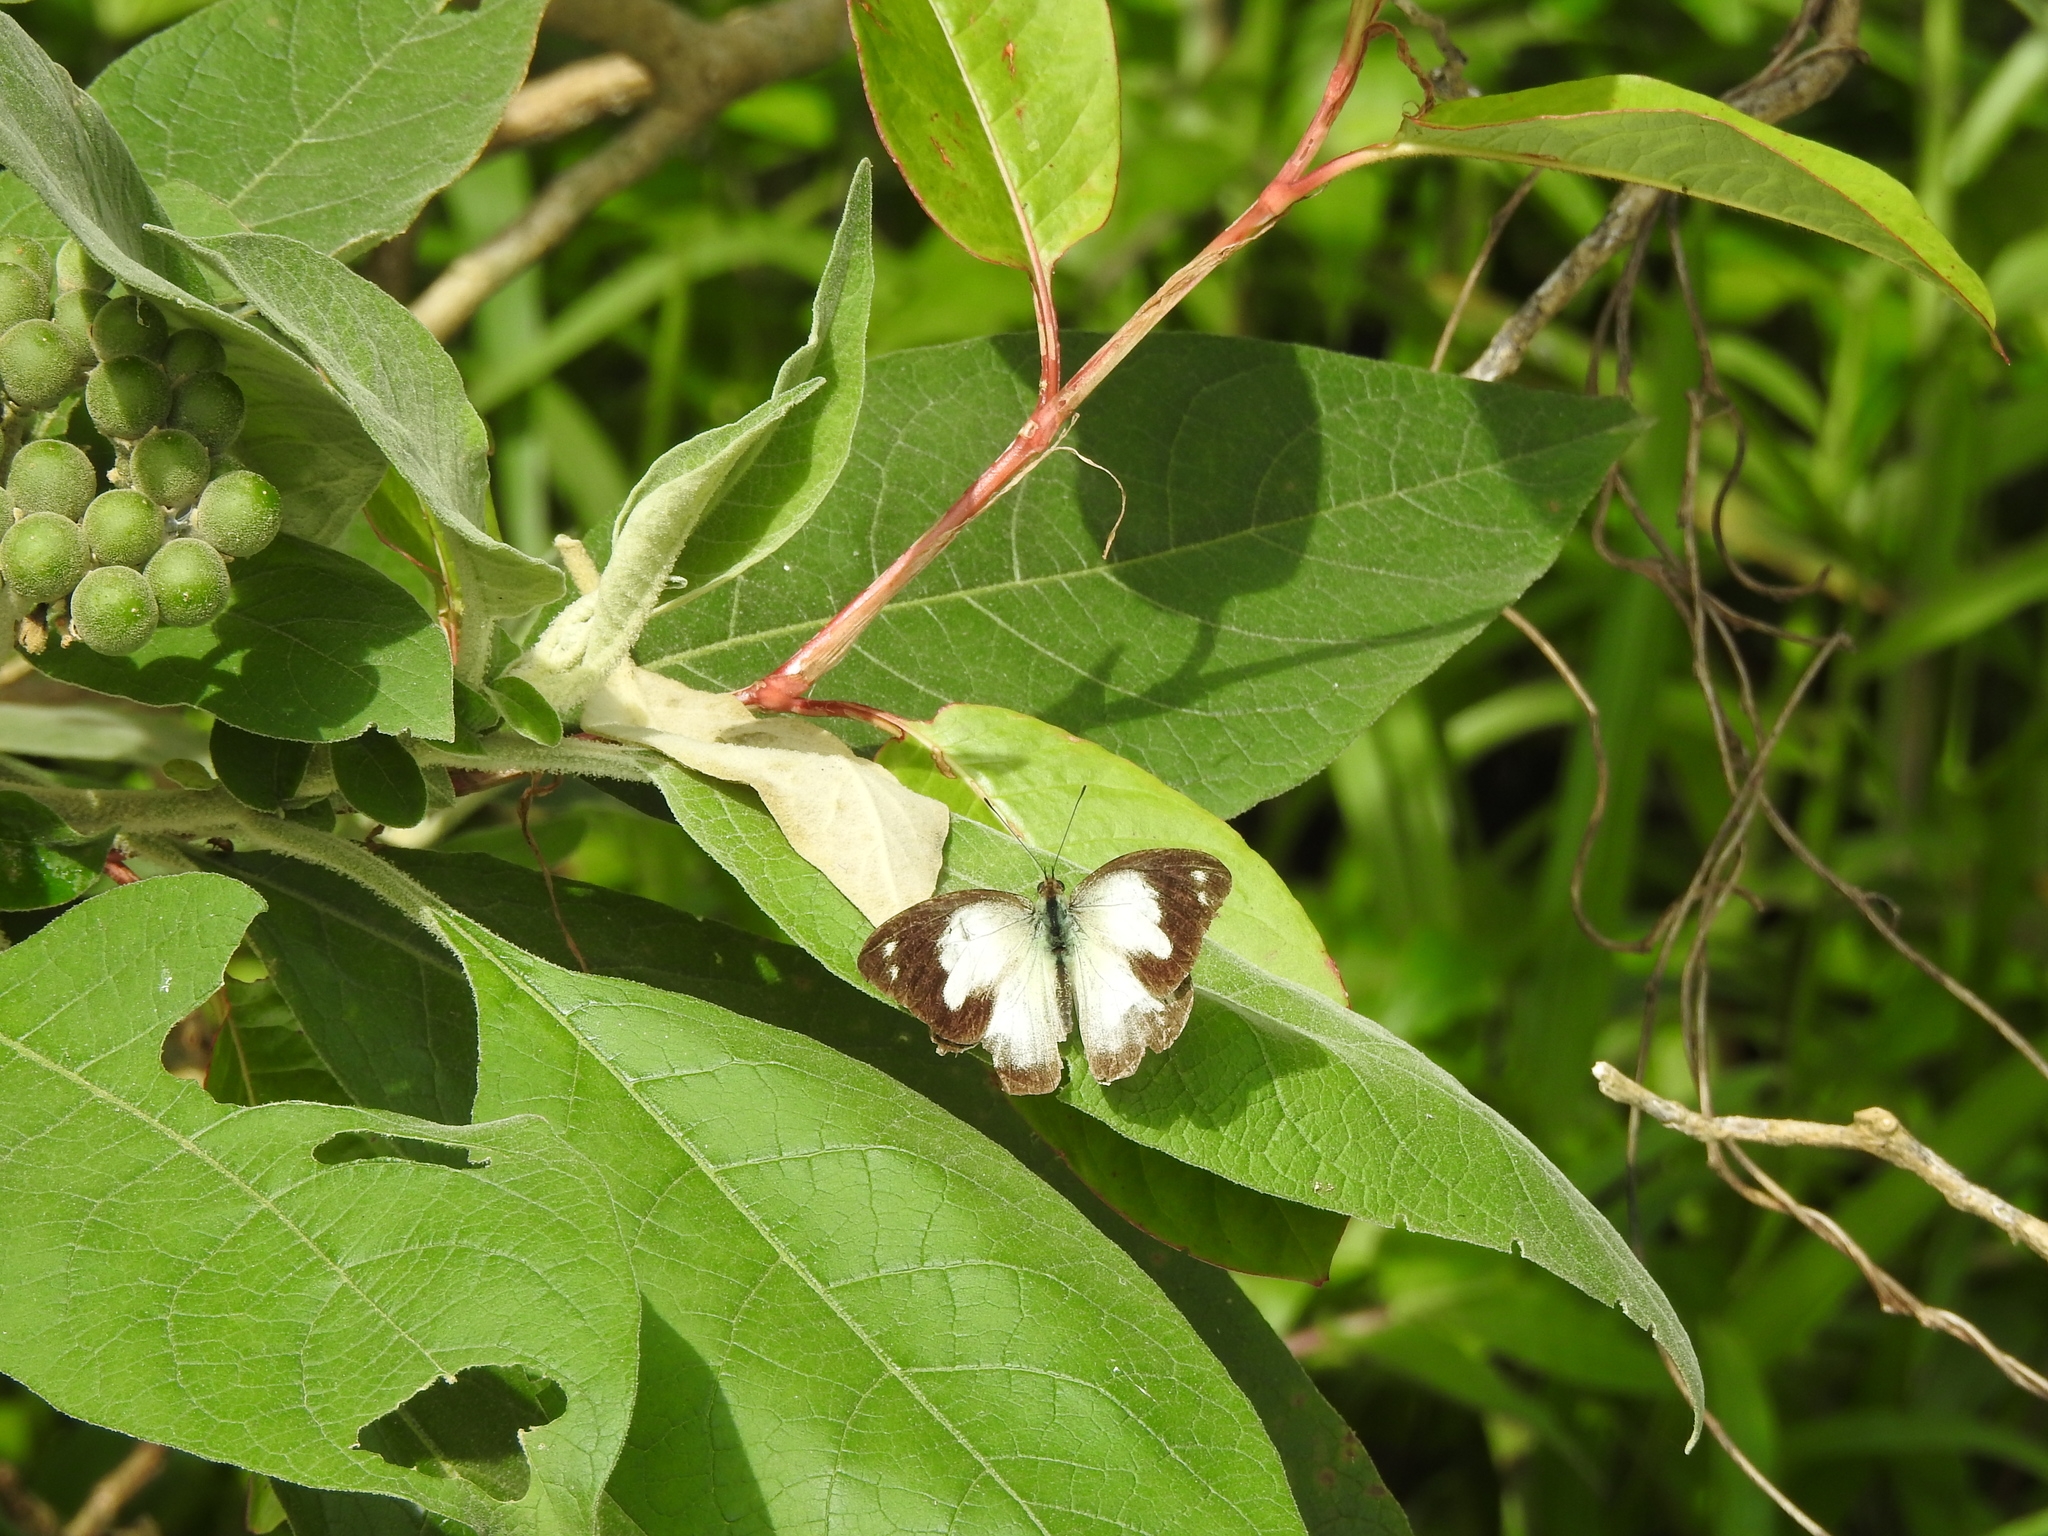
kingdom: Animalia
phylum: Arthropoda
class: Insecta
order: Lepidoptera
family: Pieridae
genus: Appias
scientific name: Appias indra
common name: Plain puffin
